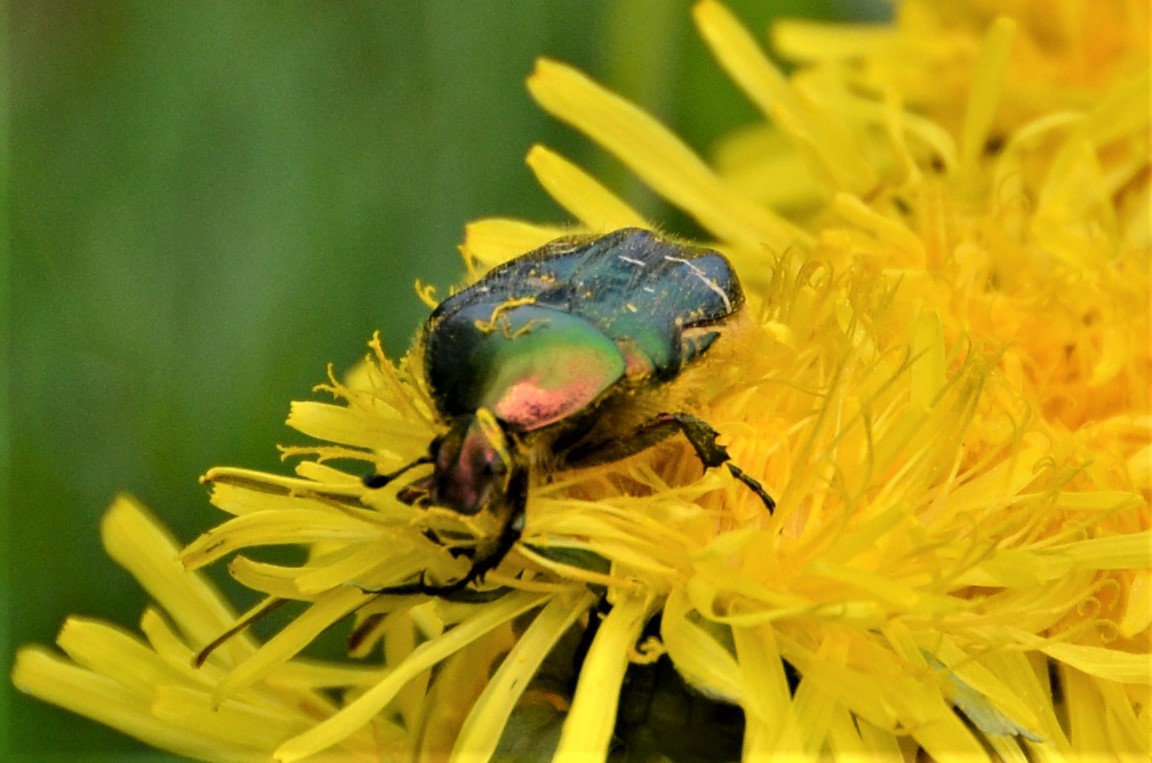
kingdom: Animalia
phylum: Arthropoda
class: Insecta
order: Coleoptera
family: Scarabaeidae
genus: Cetonia
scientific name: Cetonia aurata
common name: Rose chafer
